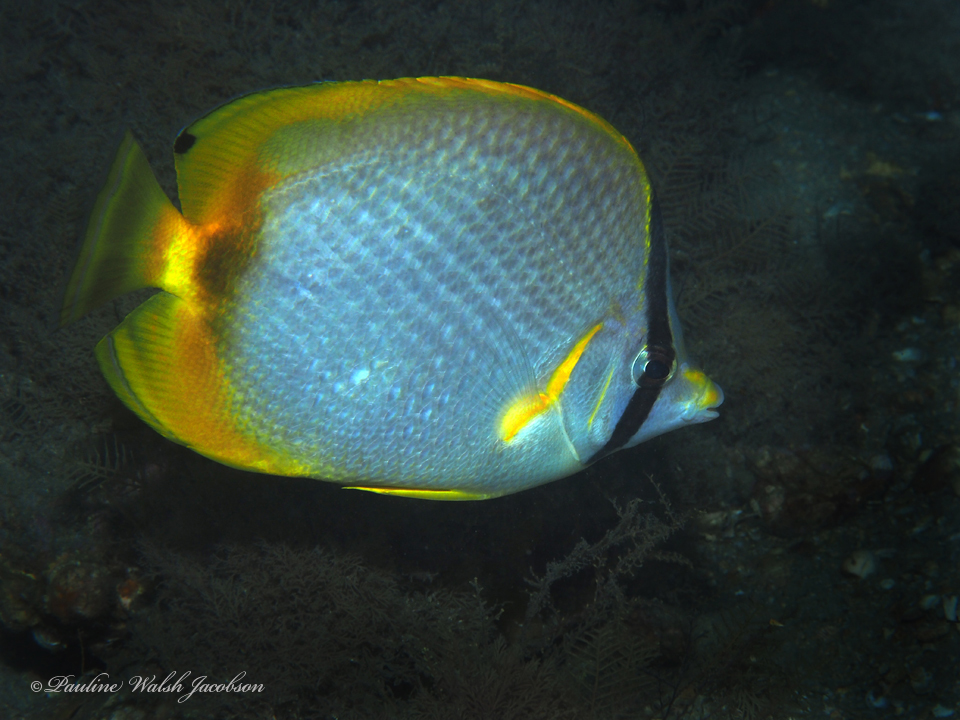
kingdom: Animalia
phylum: Chordata
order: Perciformes
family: Chaetodontidae
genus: Chaetodon
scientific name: Chaetodon ocellatus
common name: Spotfin butterflyfish
